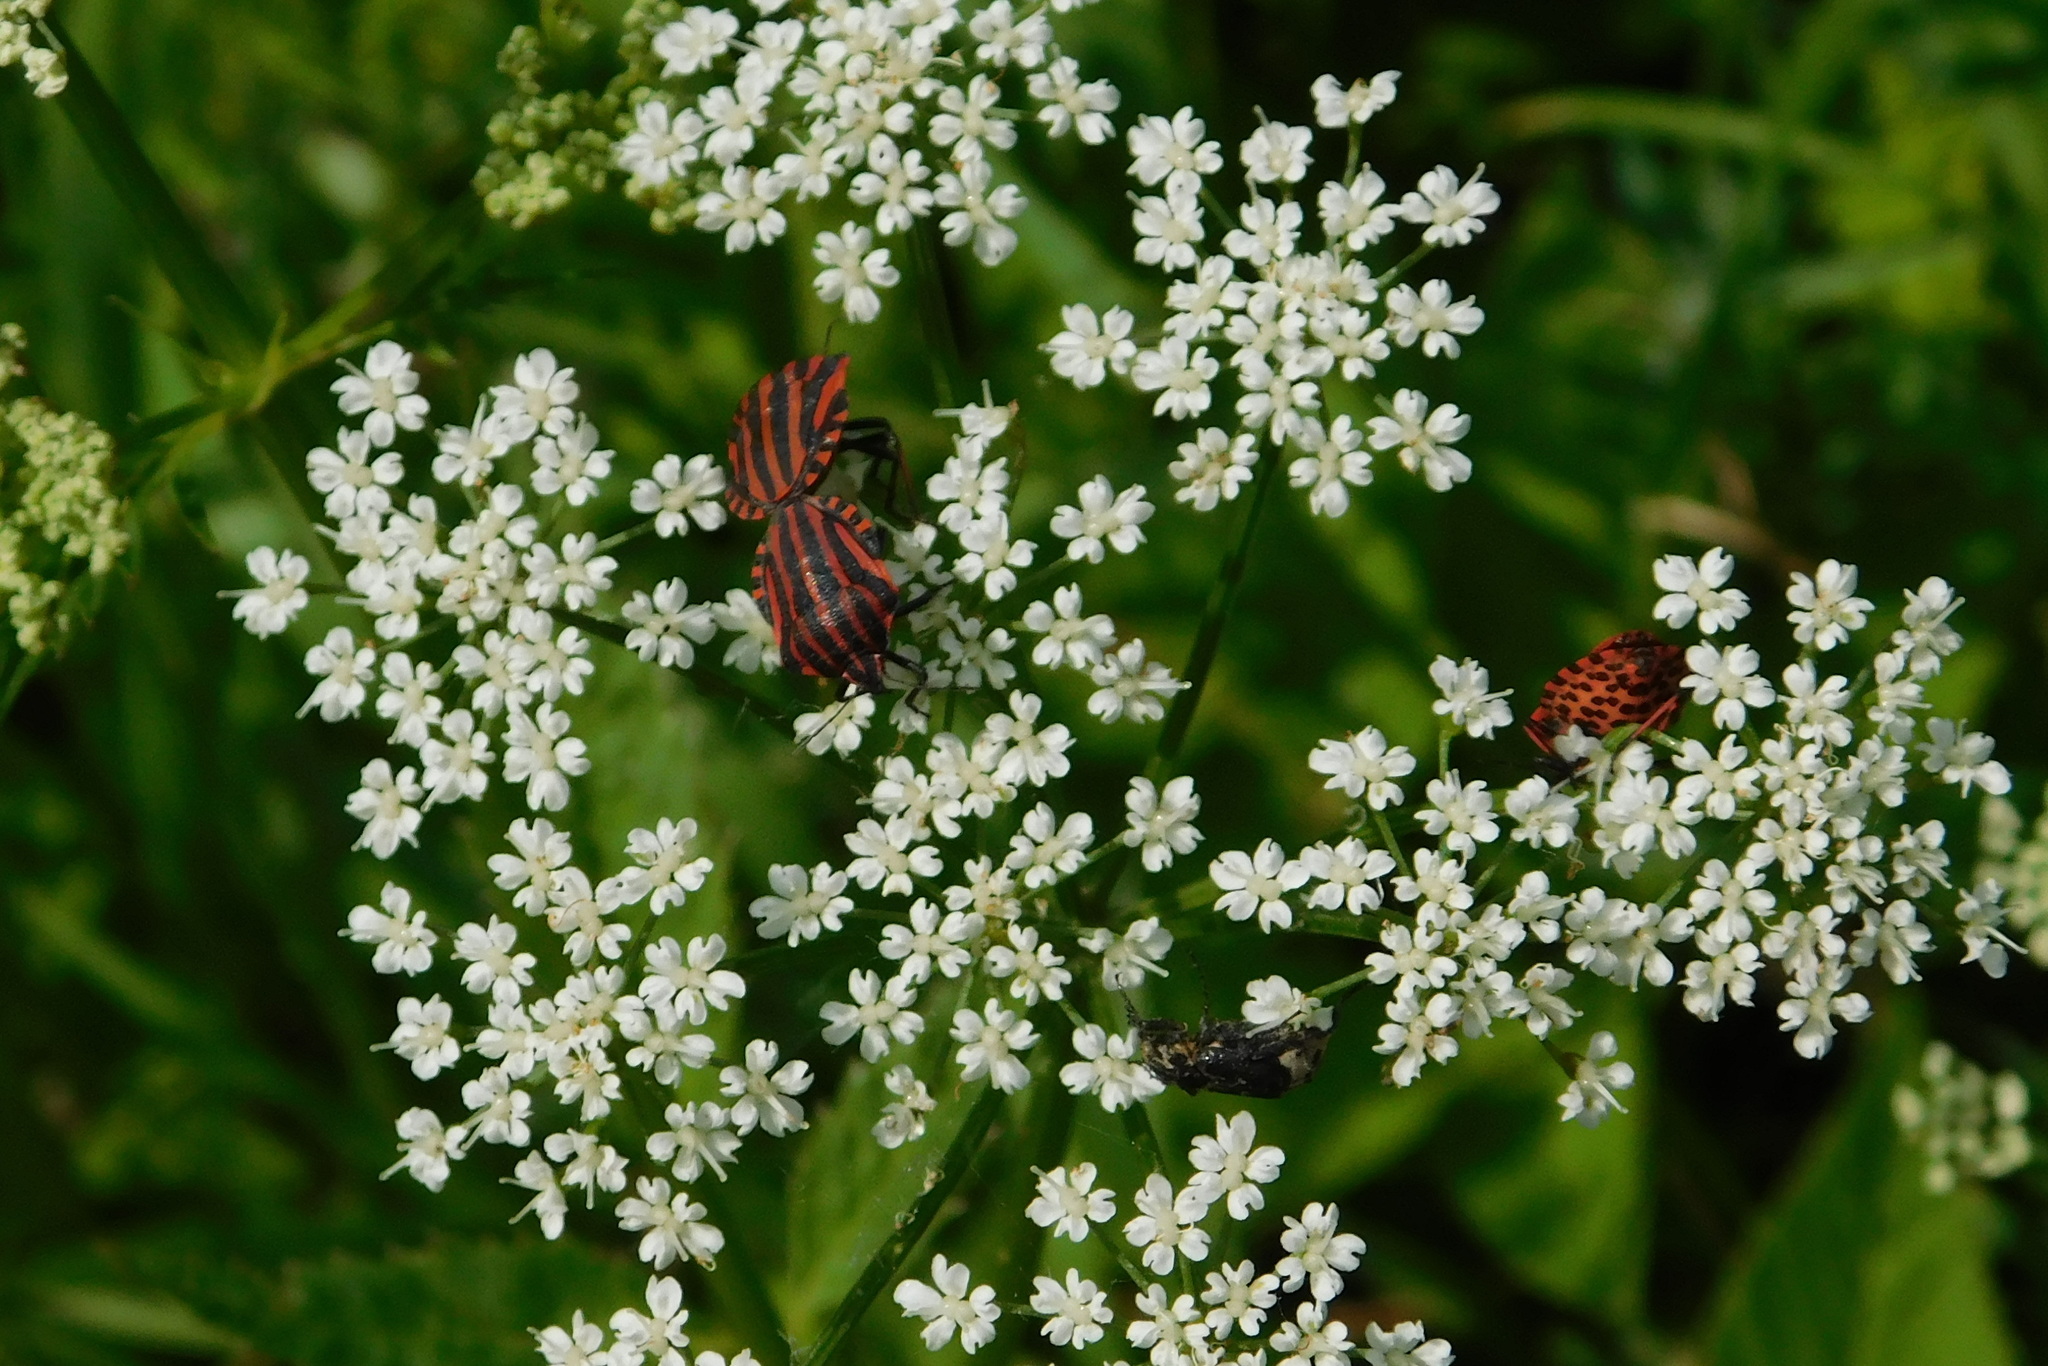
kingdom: Animalia
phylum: Arthropoda
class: Insecta
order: Hemiptera
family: Pentatomidae
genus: Graphosoma
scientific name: Graphosoma italicum
